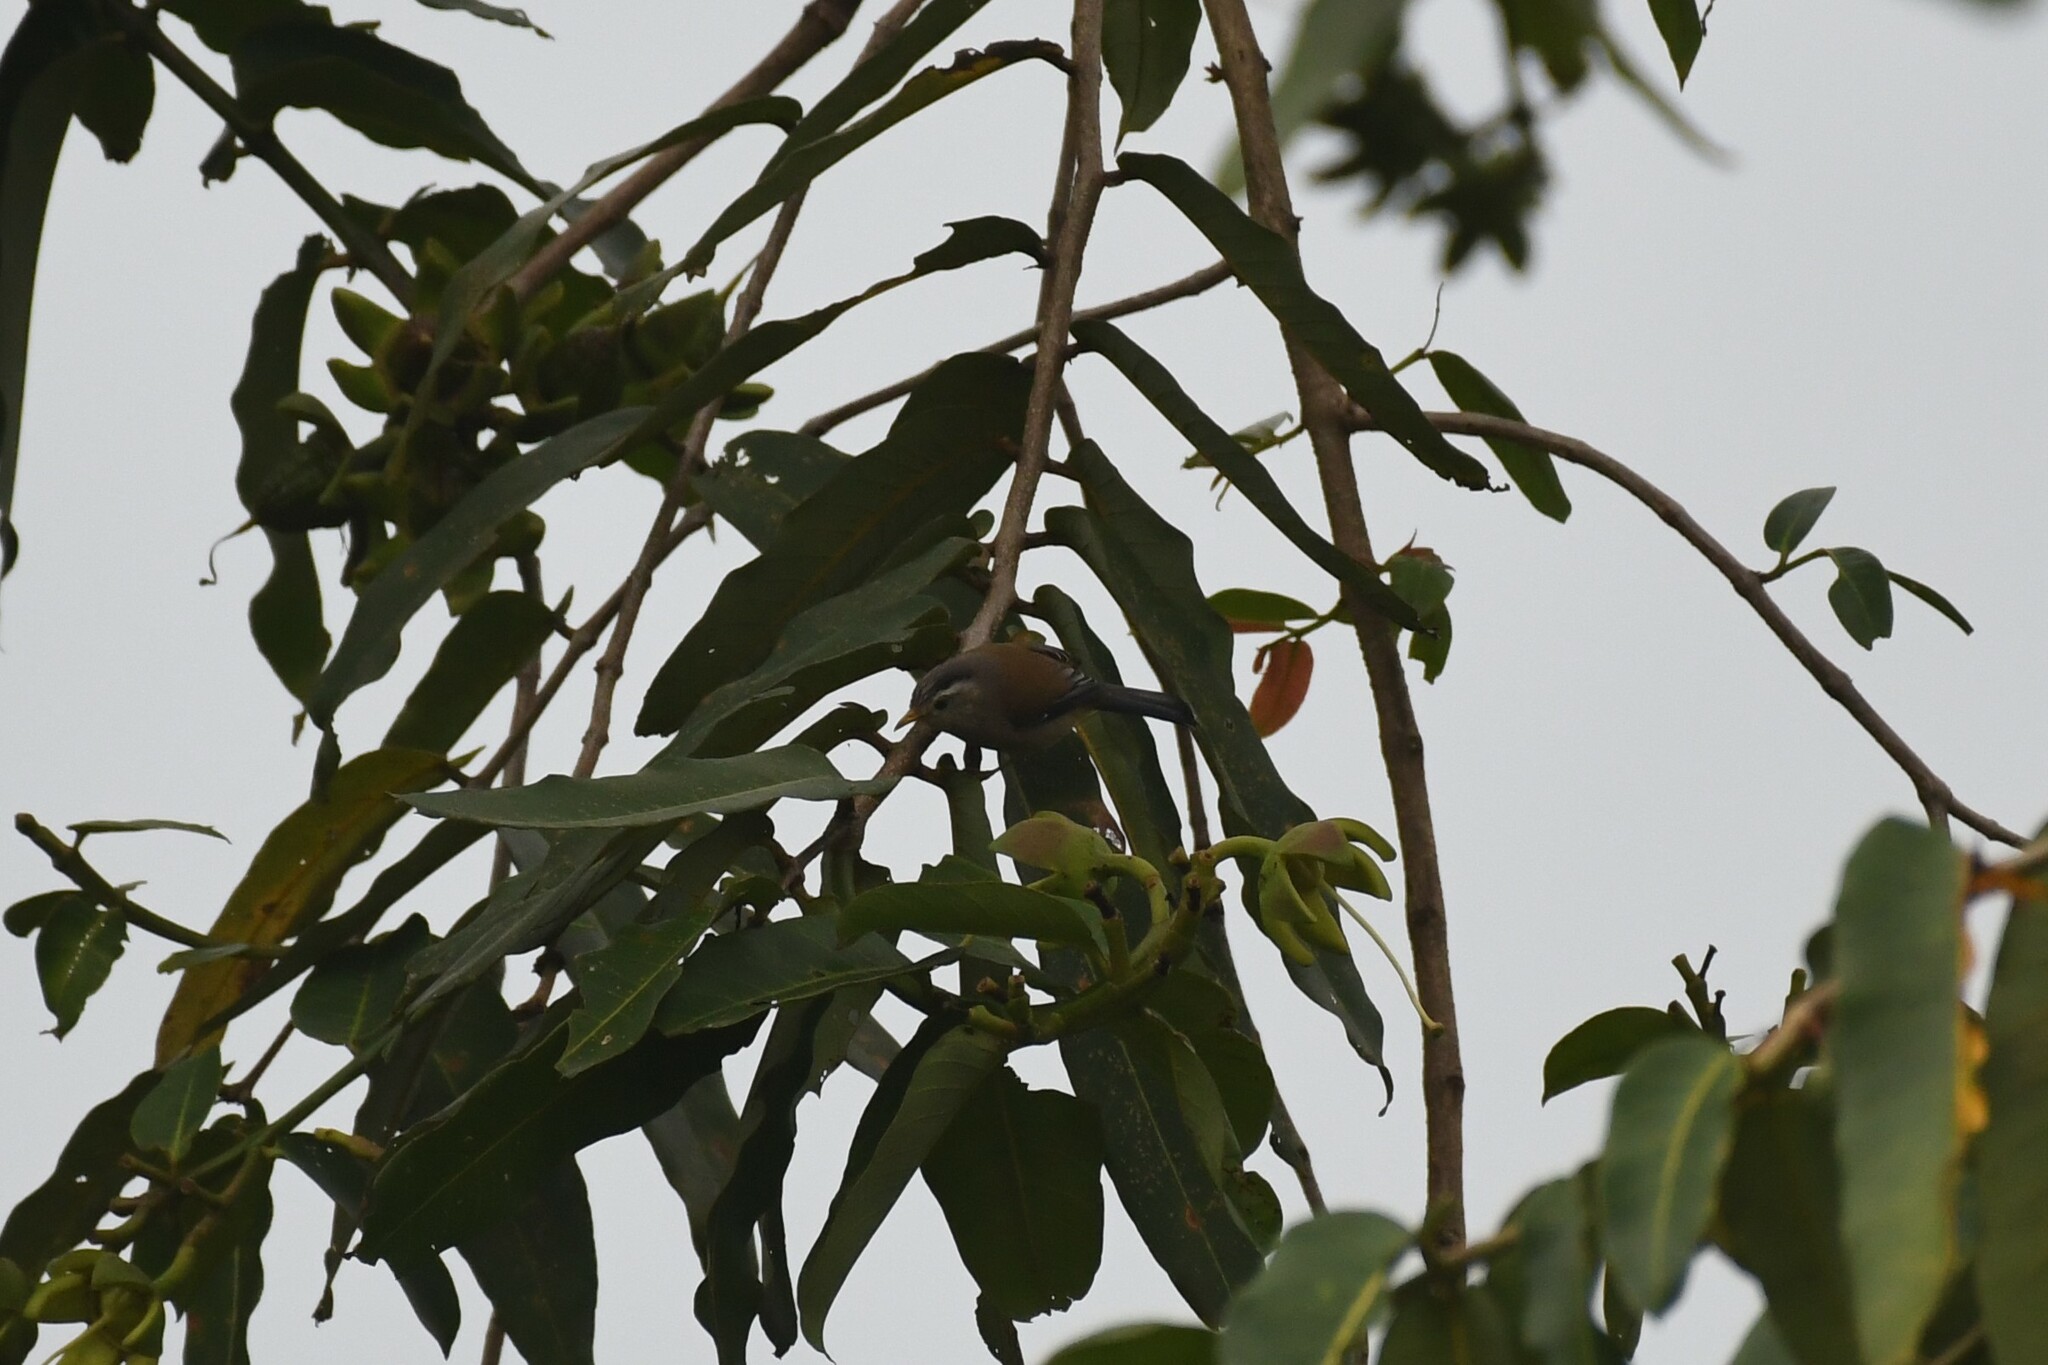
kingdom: Animalia
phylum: Chordata
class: Aves
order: Passeriformes
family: Leiothrichidae
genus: Minla
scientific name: Minla cyanouroptera
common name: Blue-winged minla
